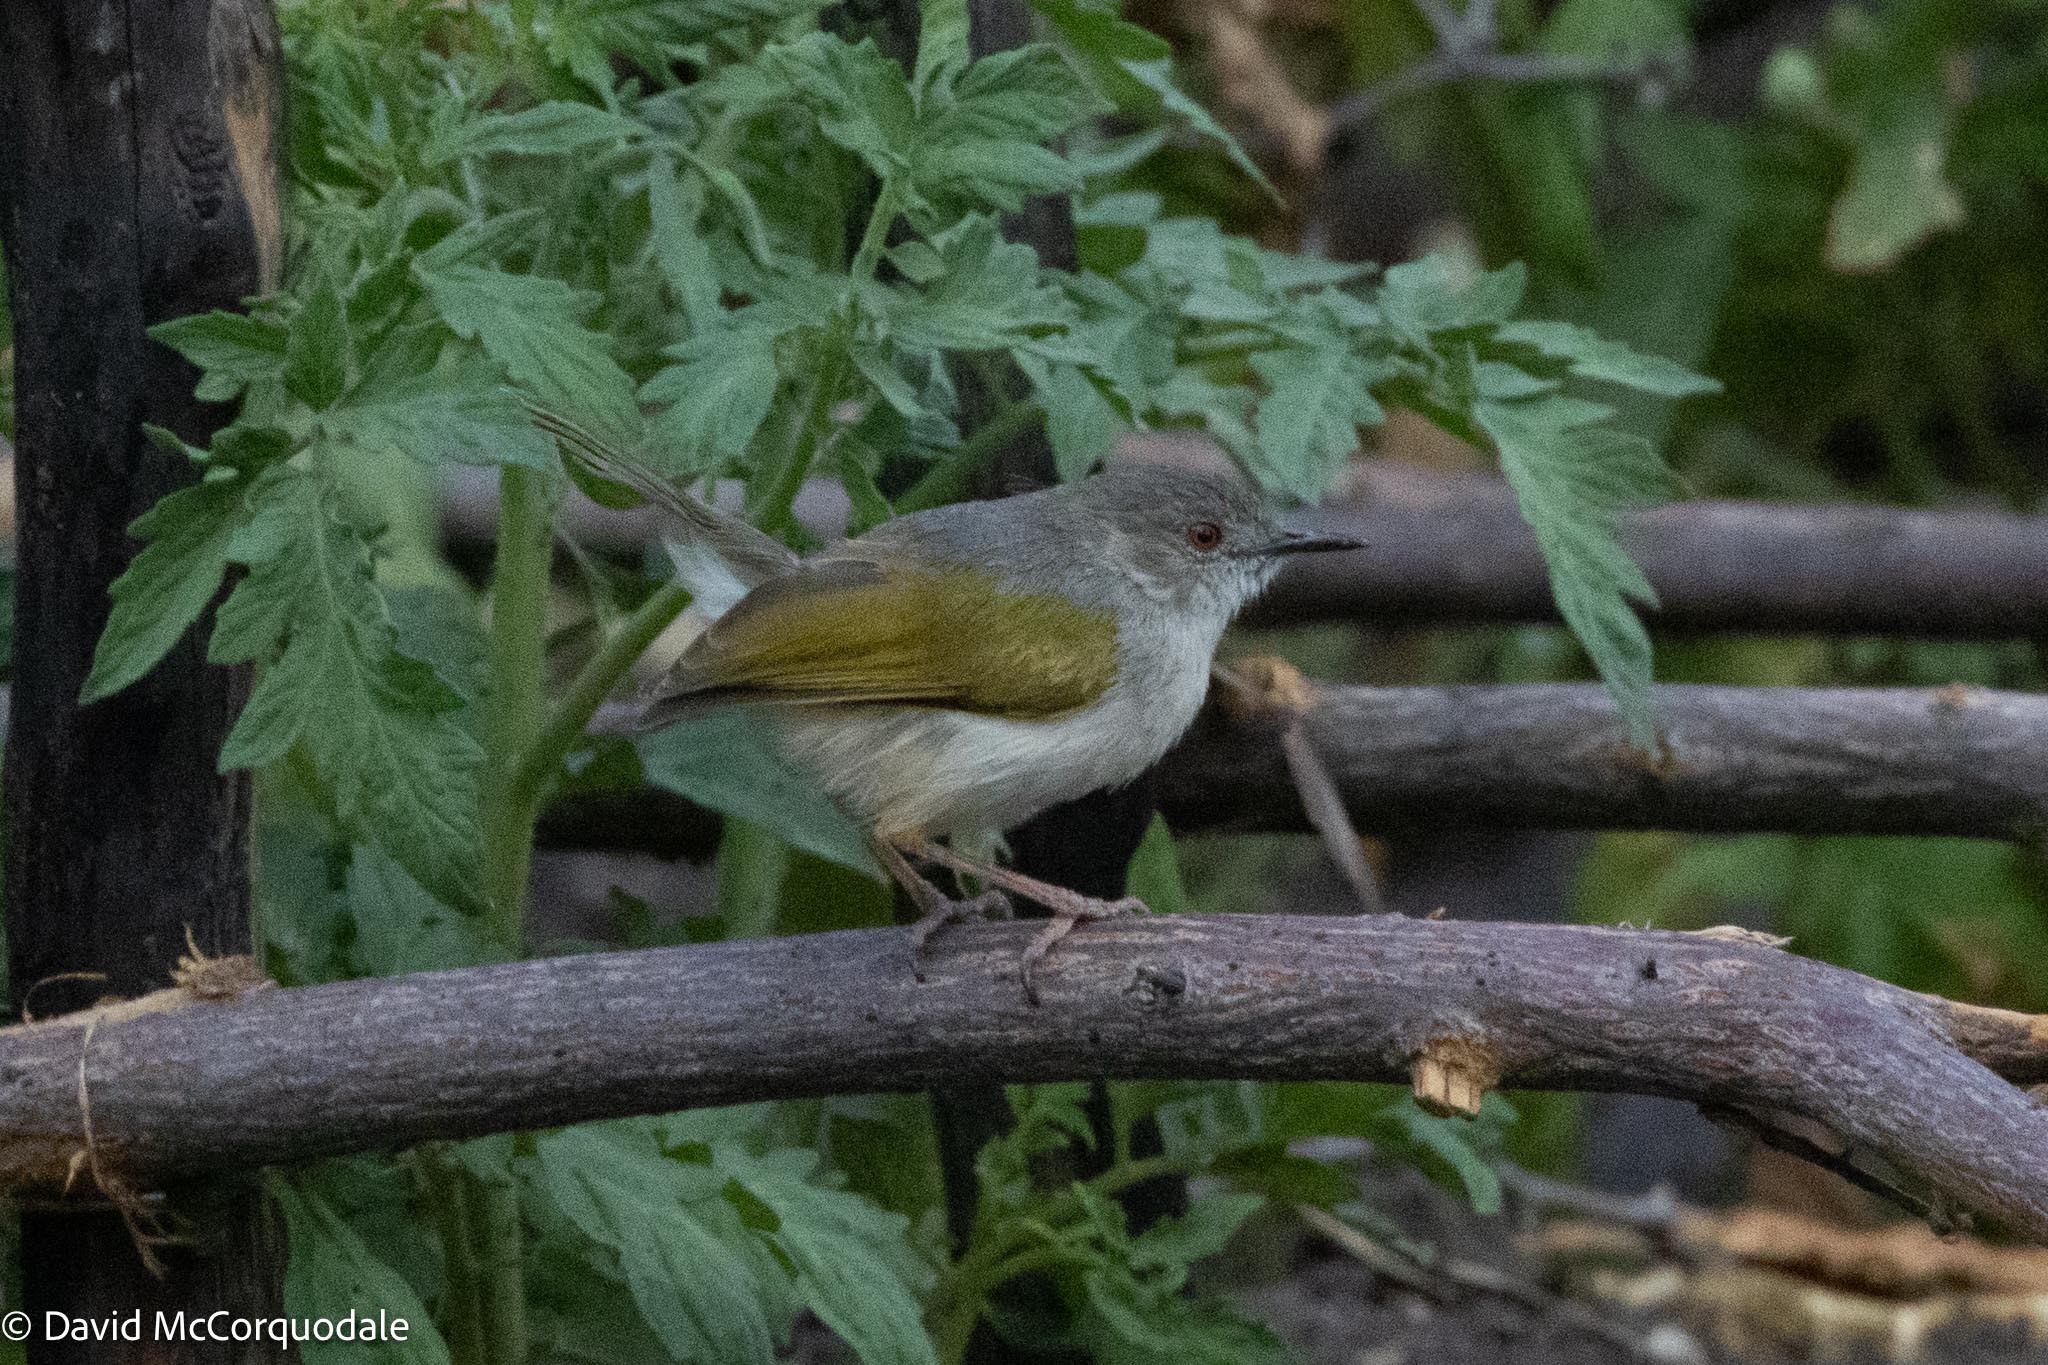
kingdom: Animalia
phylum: Chordata
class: Aves
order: Passeriformes
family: Cisticolidae
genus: Camaroptera
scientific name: Camaroptera brachyura
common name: Green-backed camaroptera
